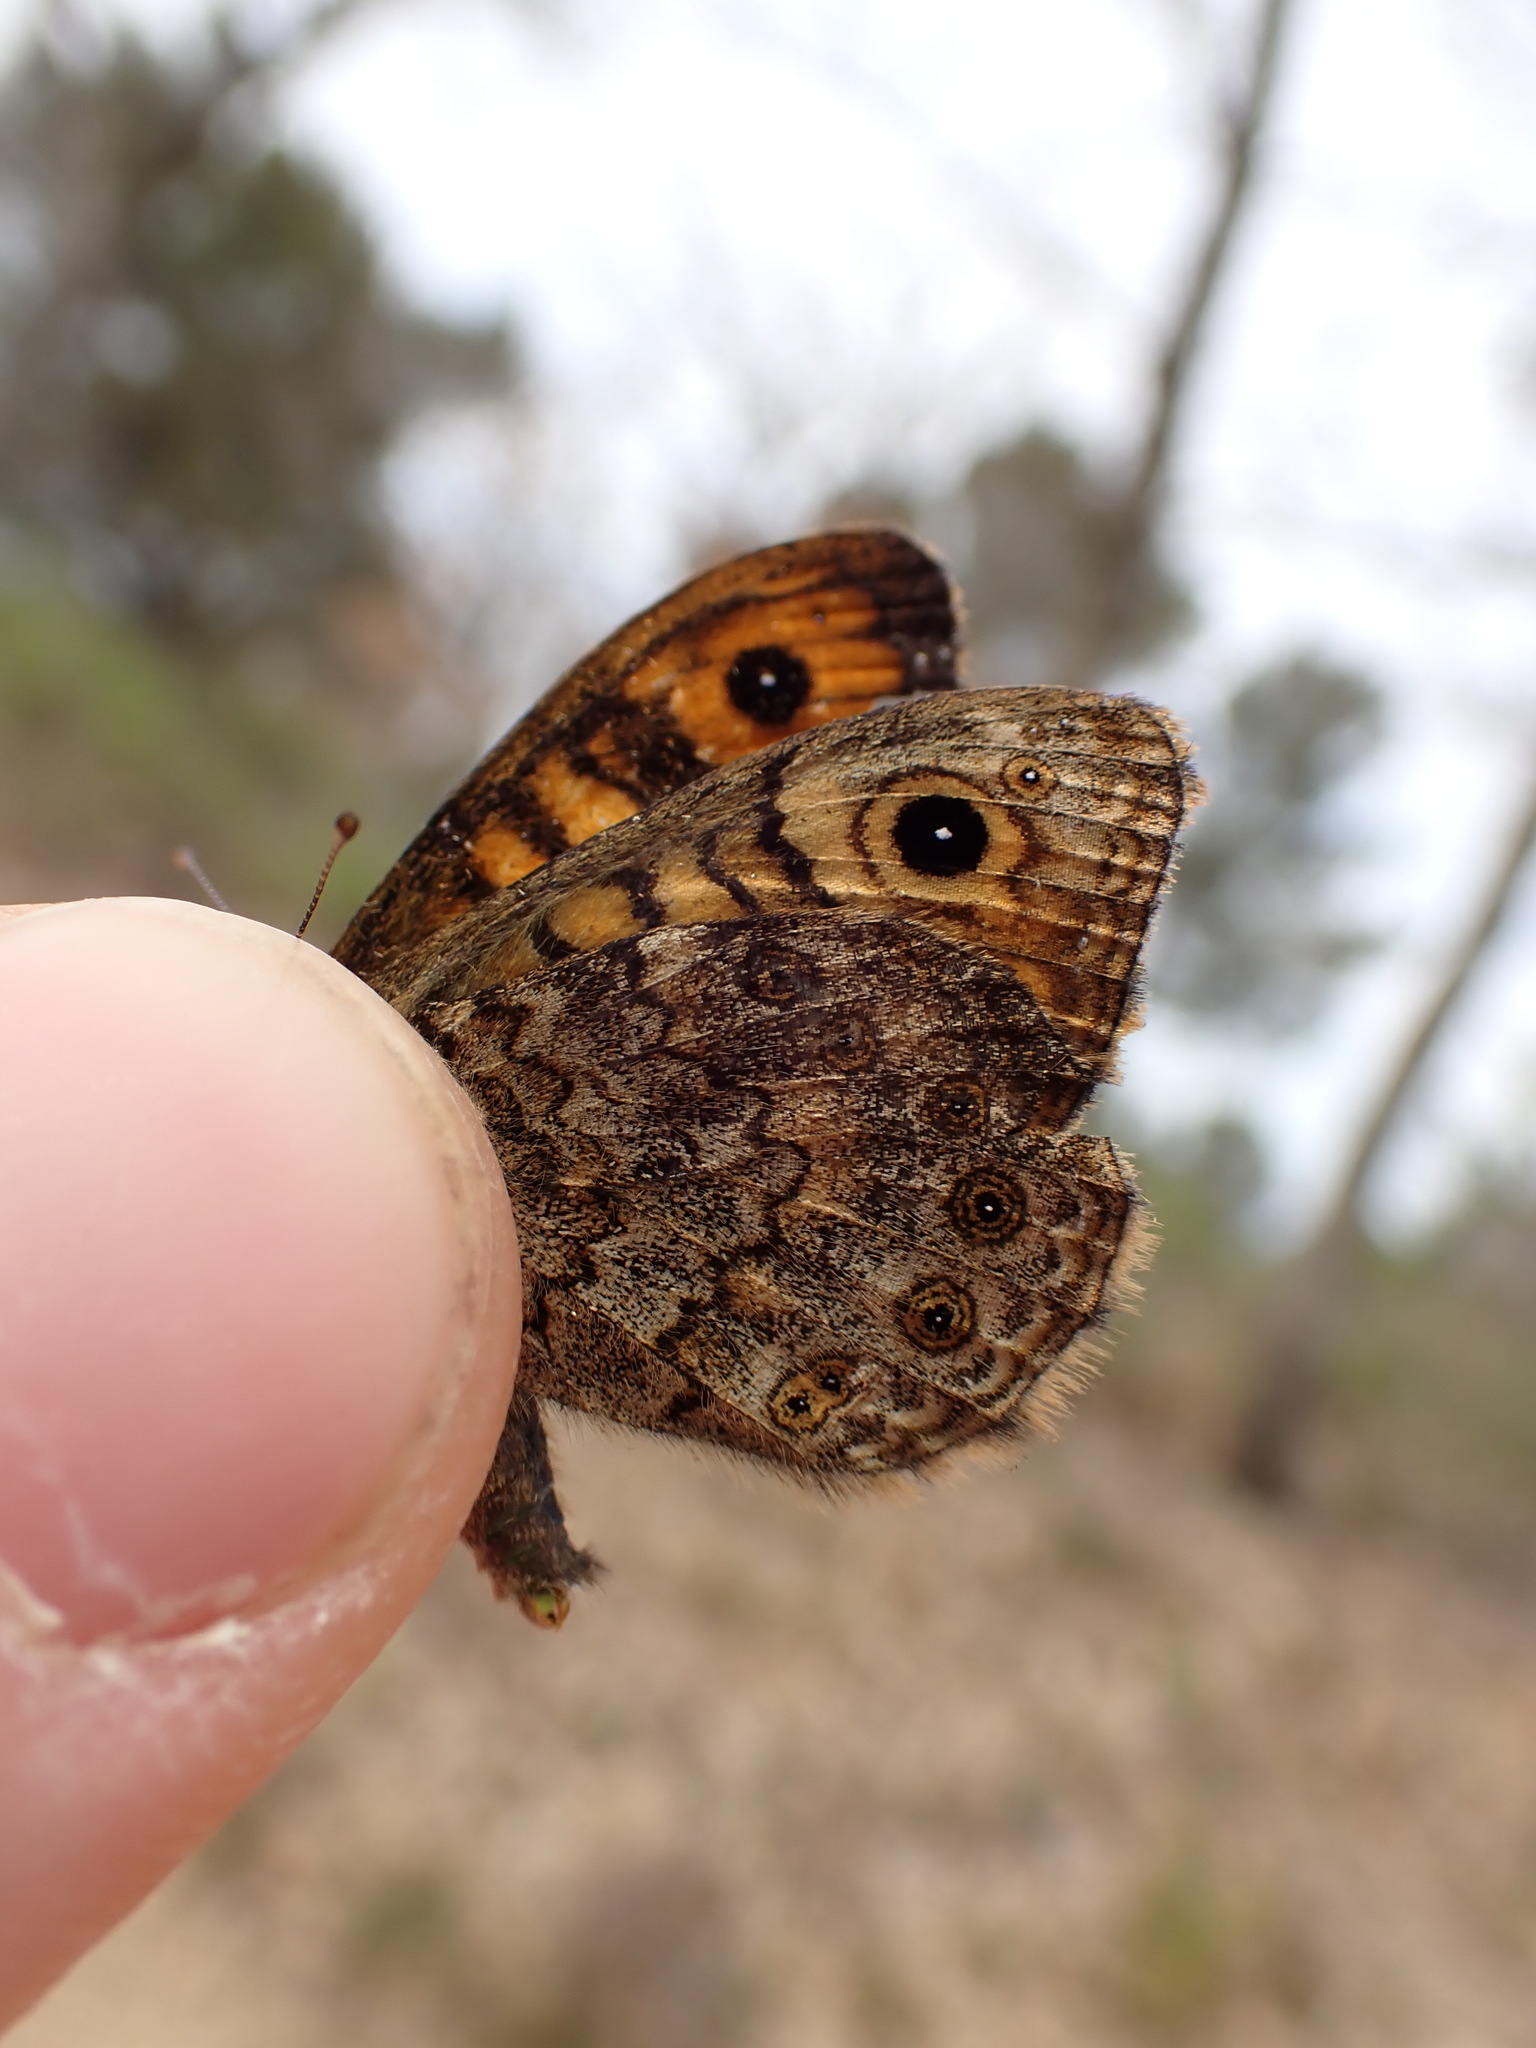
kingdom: Animalia
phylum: Arthropoda
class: Insecta
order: Lepidoptera
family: Nymphalidae
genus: Pararge
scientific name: Pararge Lasiommata megera
